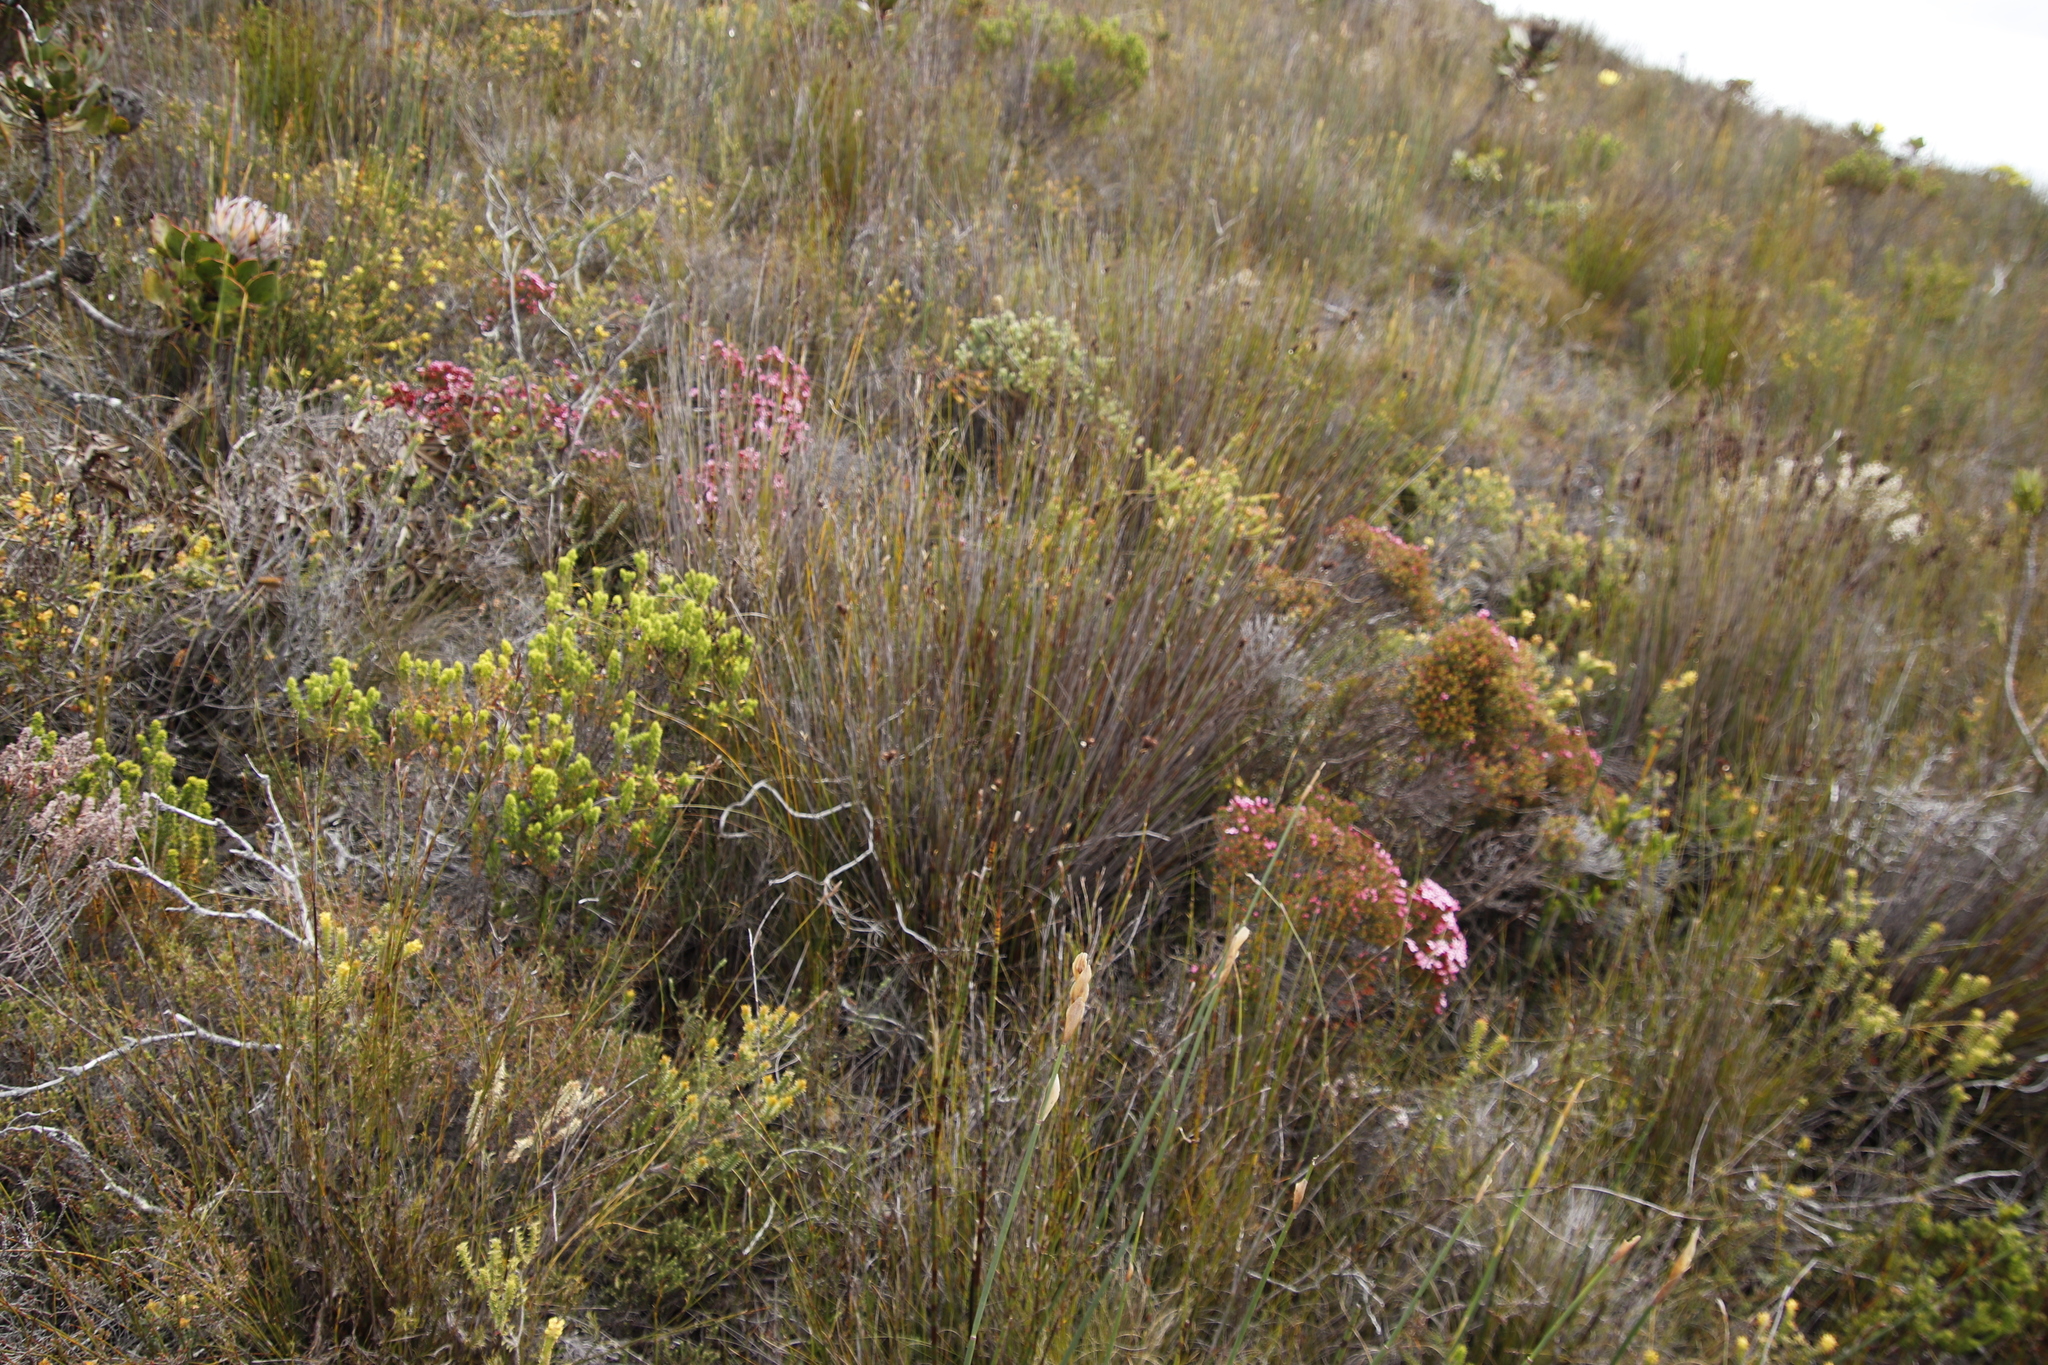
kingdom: Plantae
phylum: Tracheophyta
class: Magnoliopsida
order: Myrtales
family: Penaeaceae
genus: Brachysiphon
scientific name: Brachysiphon acutus
